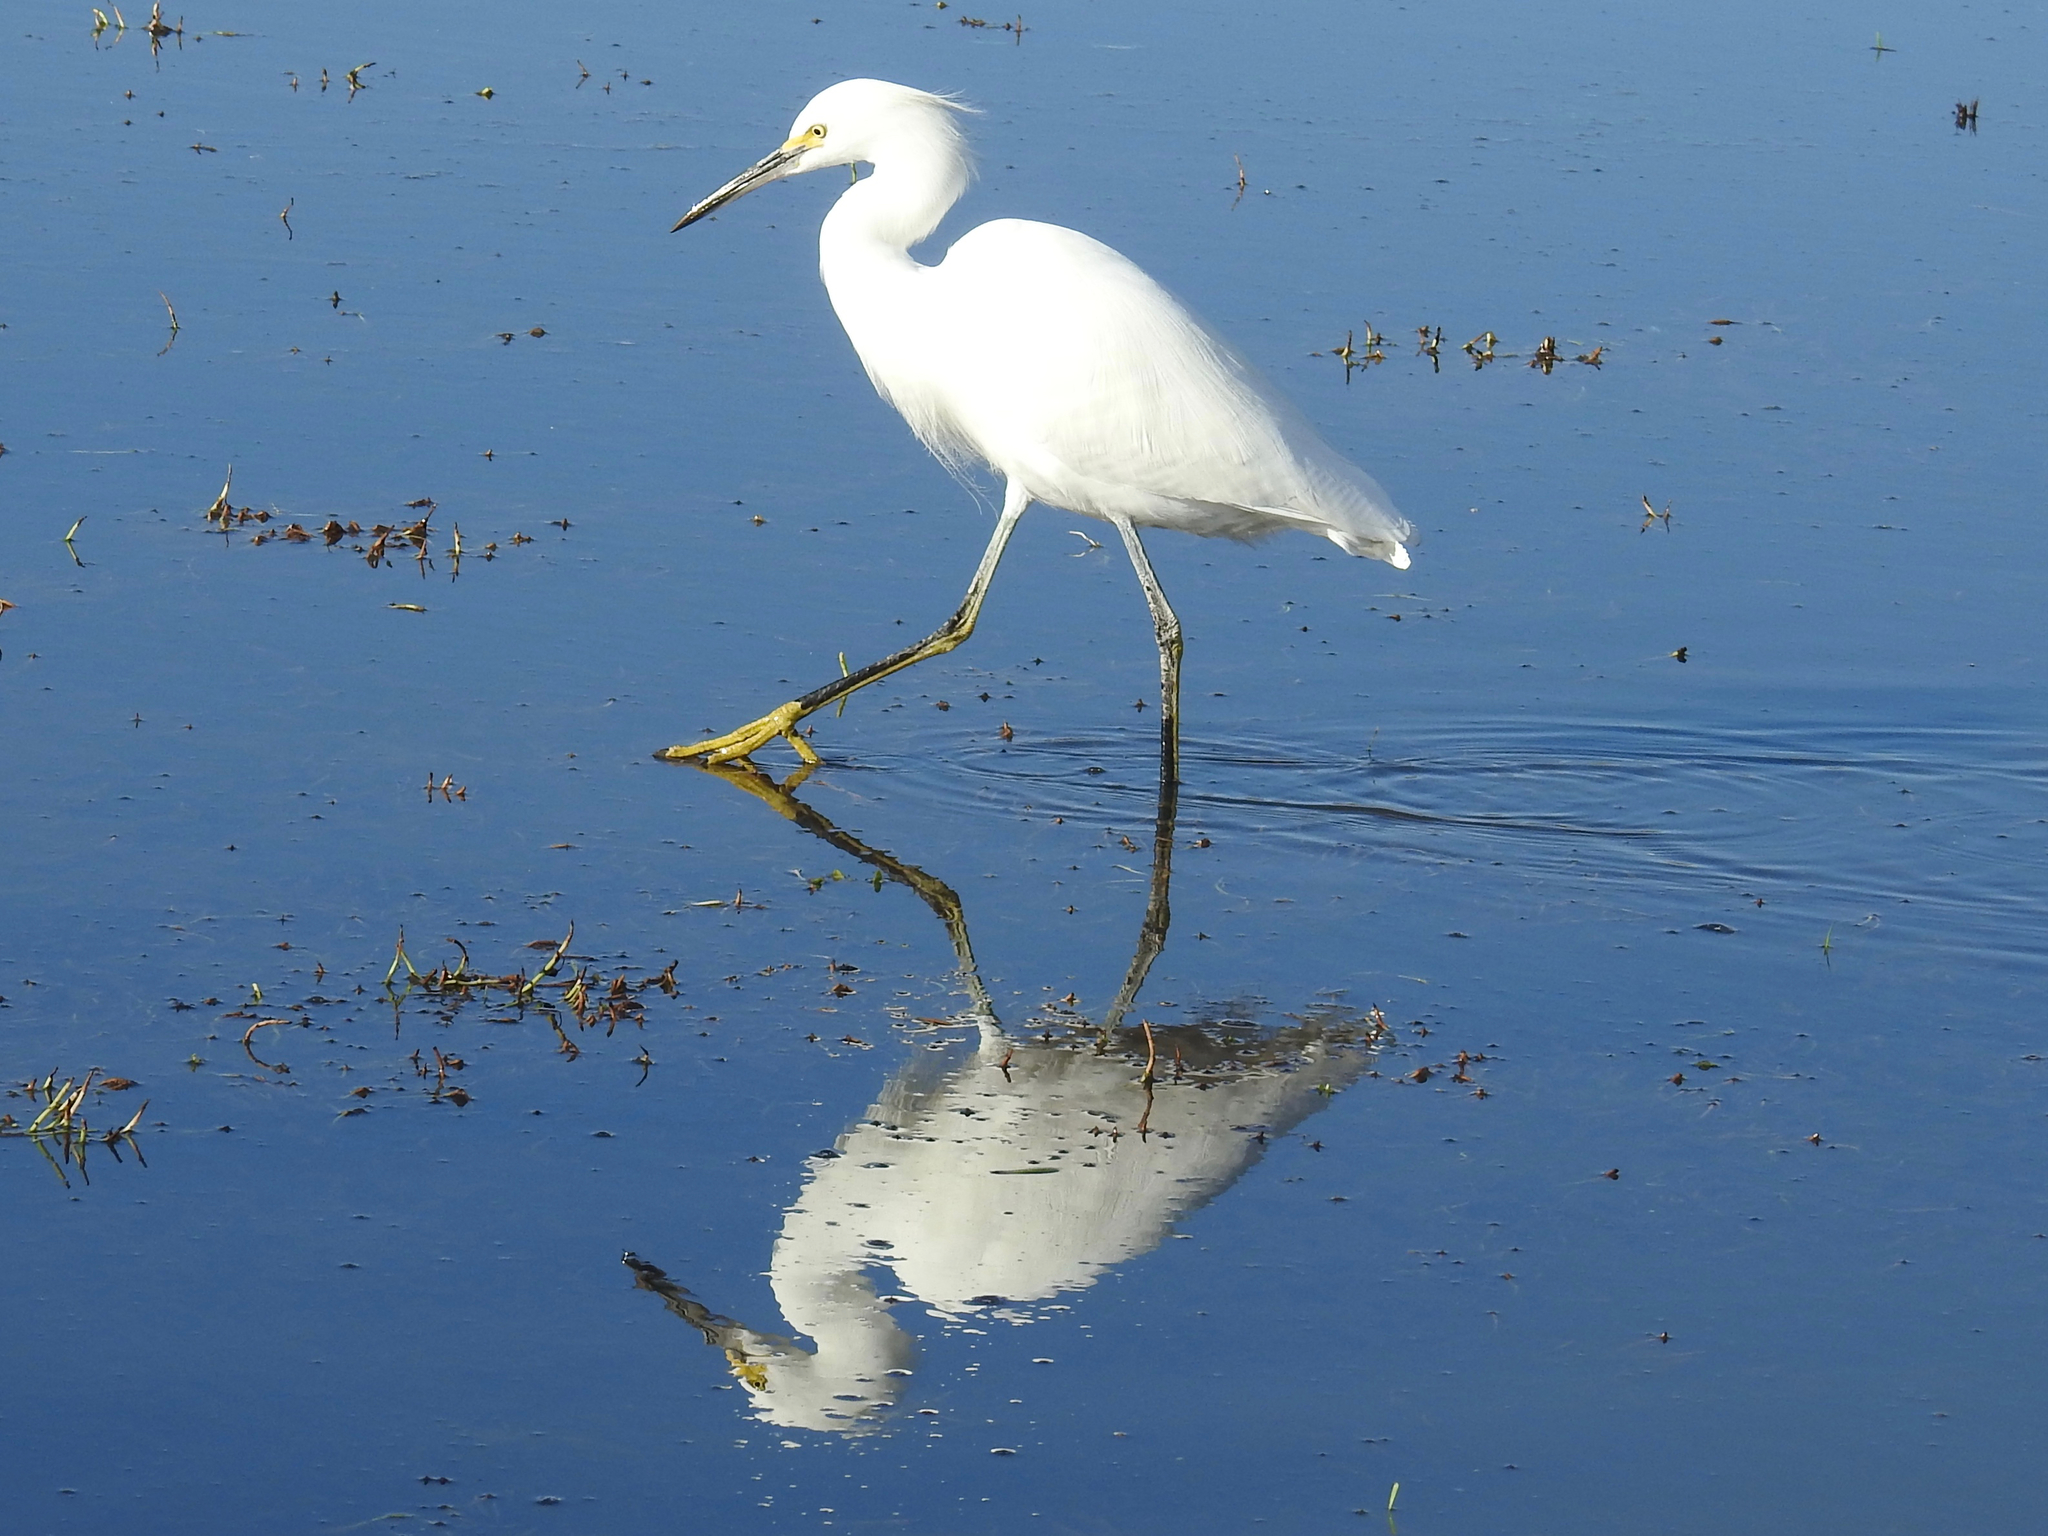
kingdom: Animalia
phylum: Chordata
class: Aves
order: Pelecaniformes
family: Ardeidae
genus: Egretta
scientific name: Egretta thula
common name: Snowy egret
